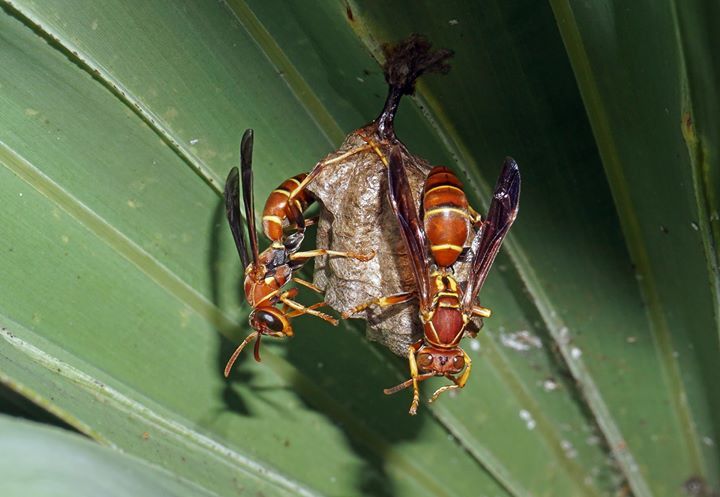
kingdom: Animalia
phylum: Arthropoda
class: Insecta
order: Hymenoptera
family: Eumenidae
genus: Polistes
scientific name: Polistes dorsalis
